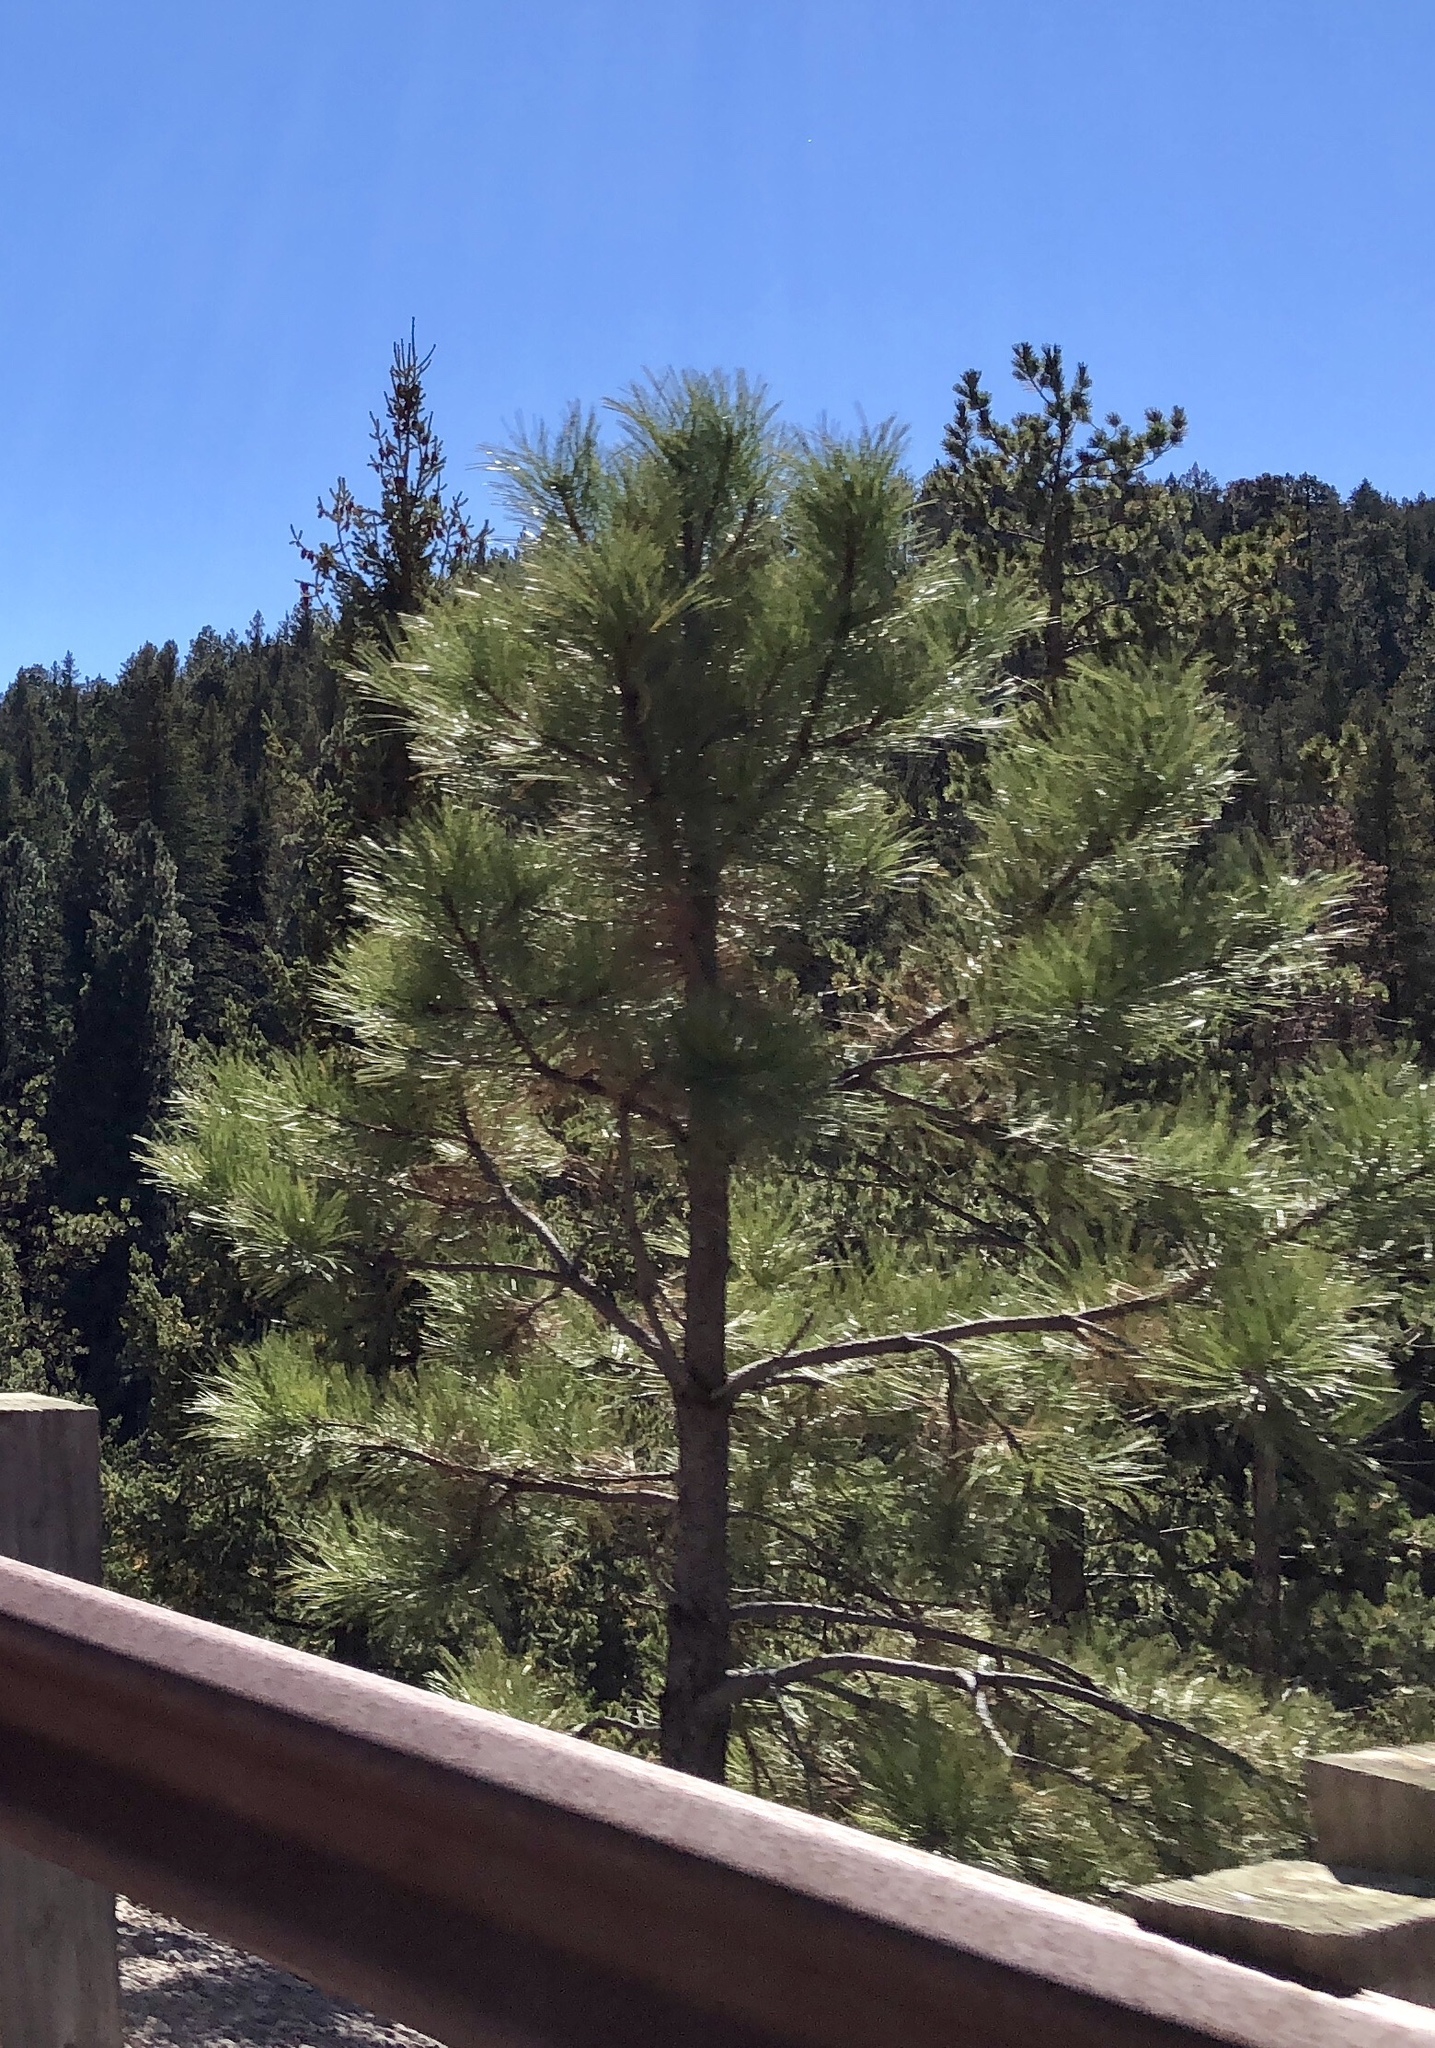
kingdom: Plantae
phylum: Tracheophyta
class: Pinopsida
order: Pinales
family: Pinaceae
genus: Pinus
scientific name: Pinus ponderosa
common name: Western yellow-pine
